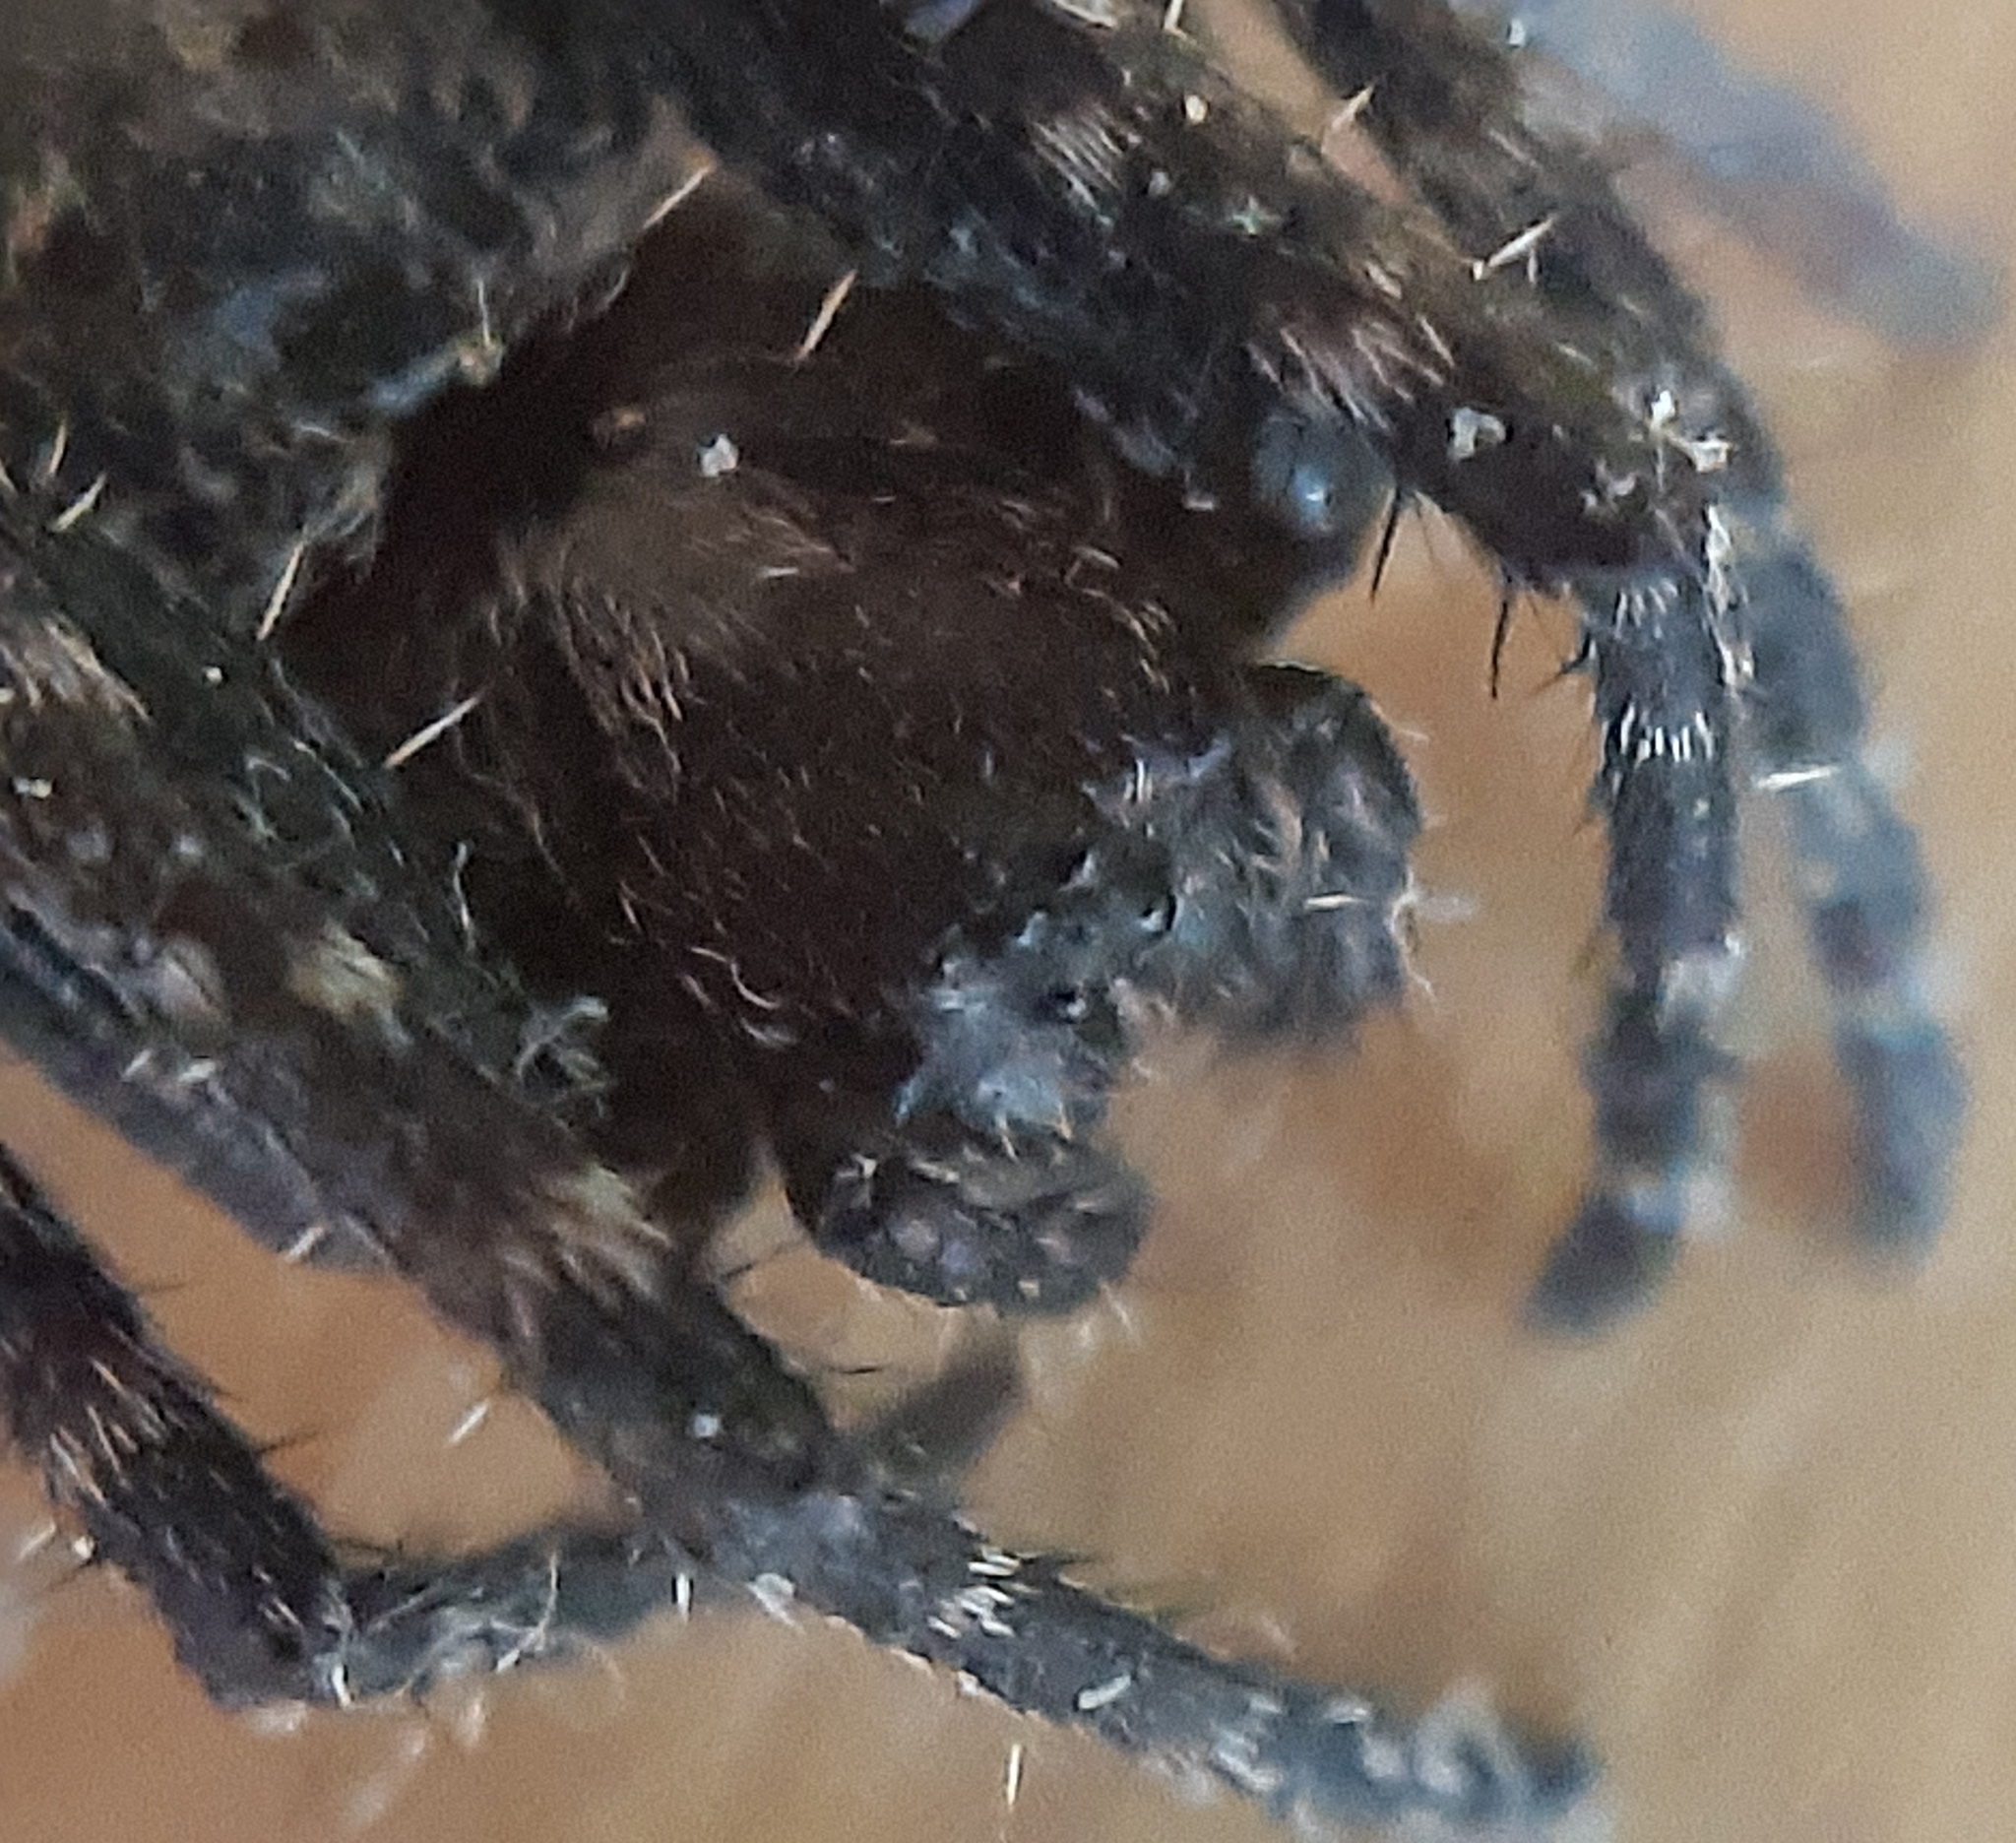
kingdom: Animalia
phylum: Arthropoda
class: Arachnida
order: Araneae
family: Araneidae
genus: Nuctenea
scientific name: Nuctenea umbratica
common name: Toad spider
